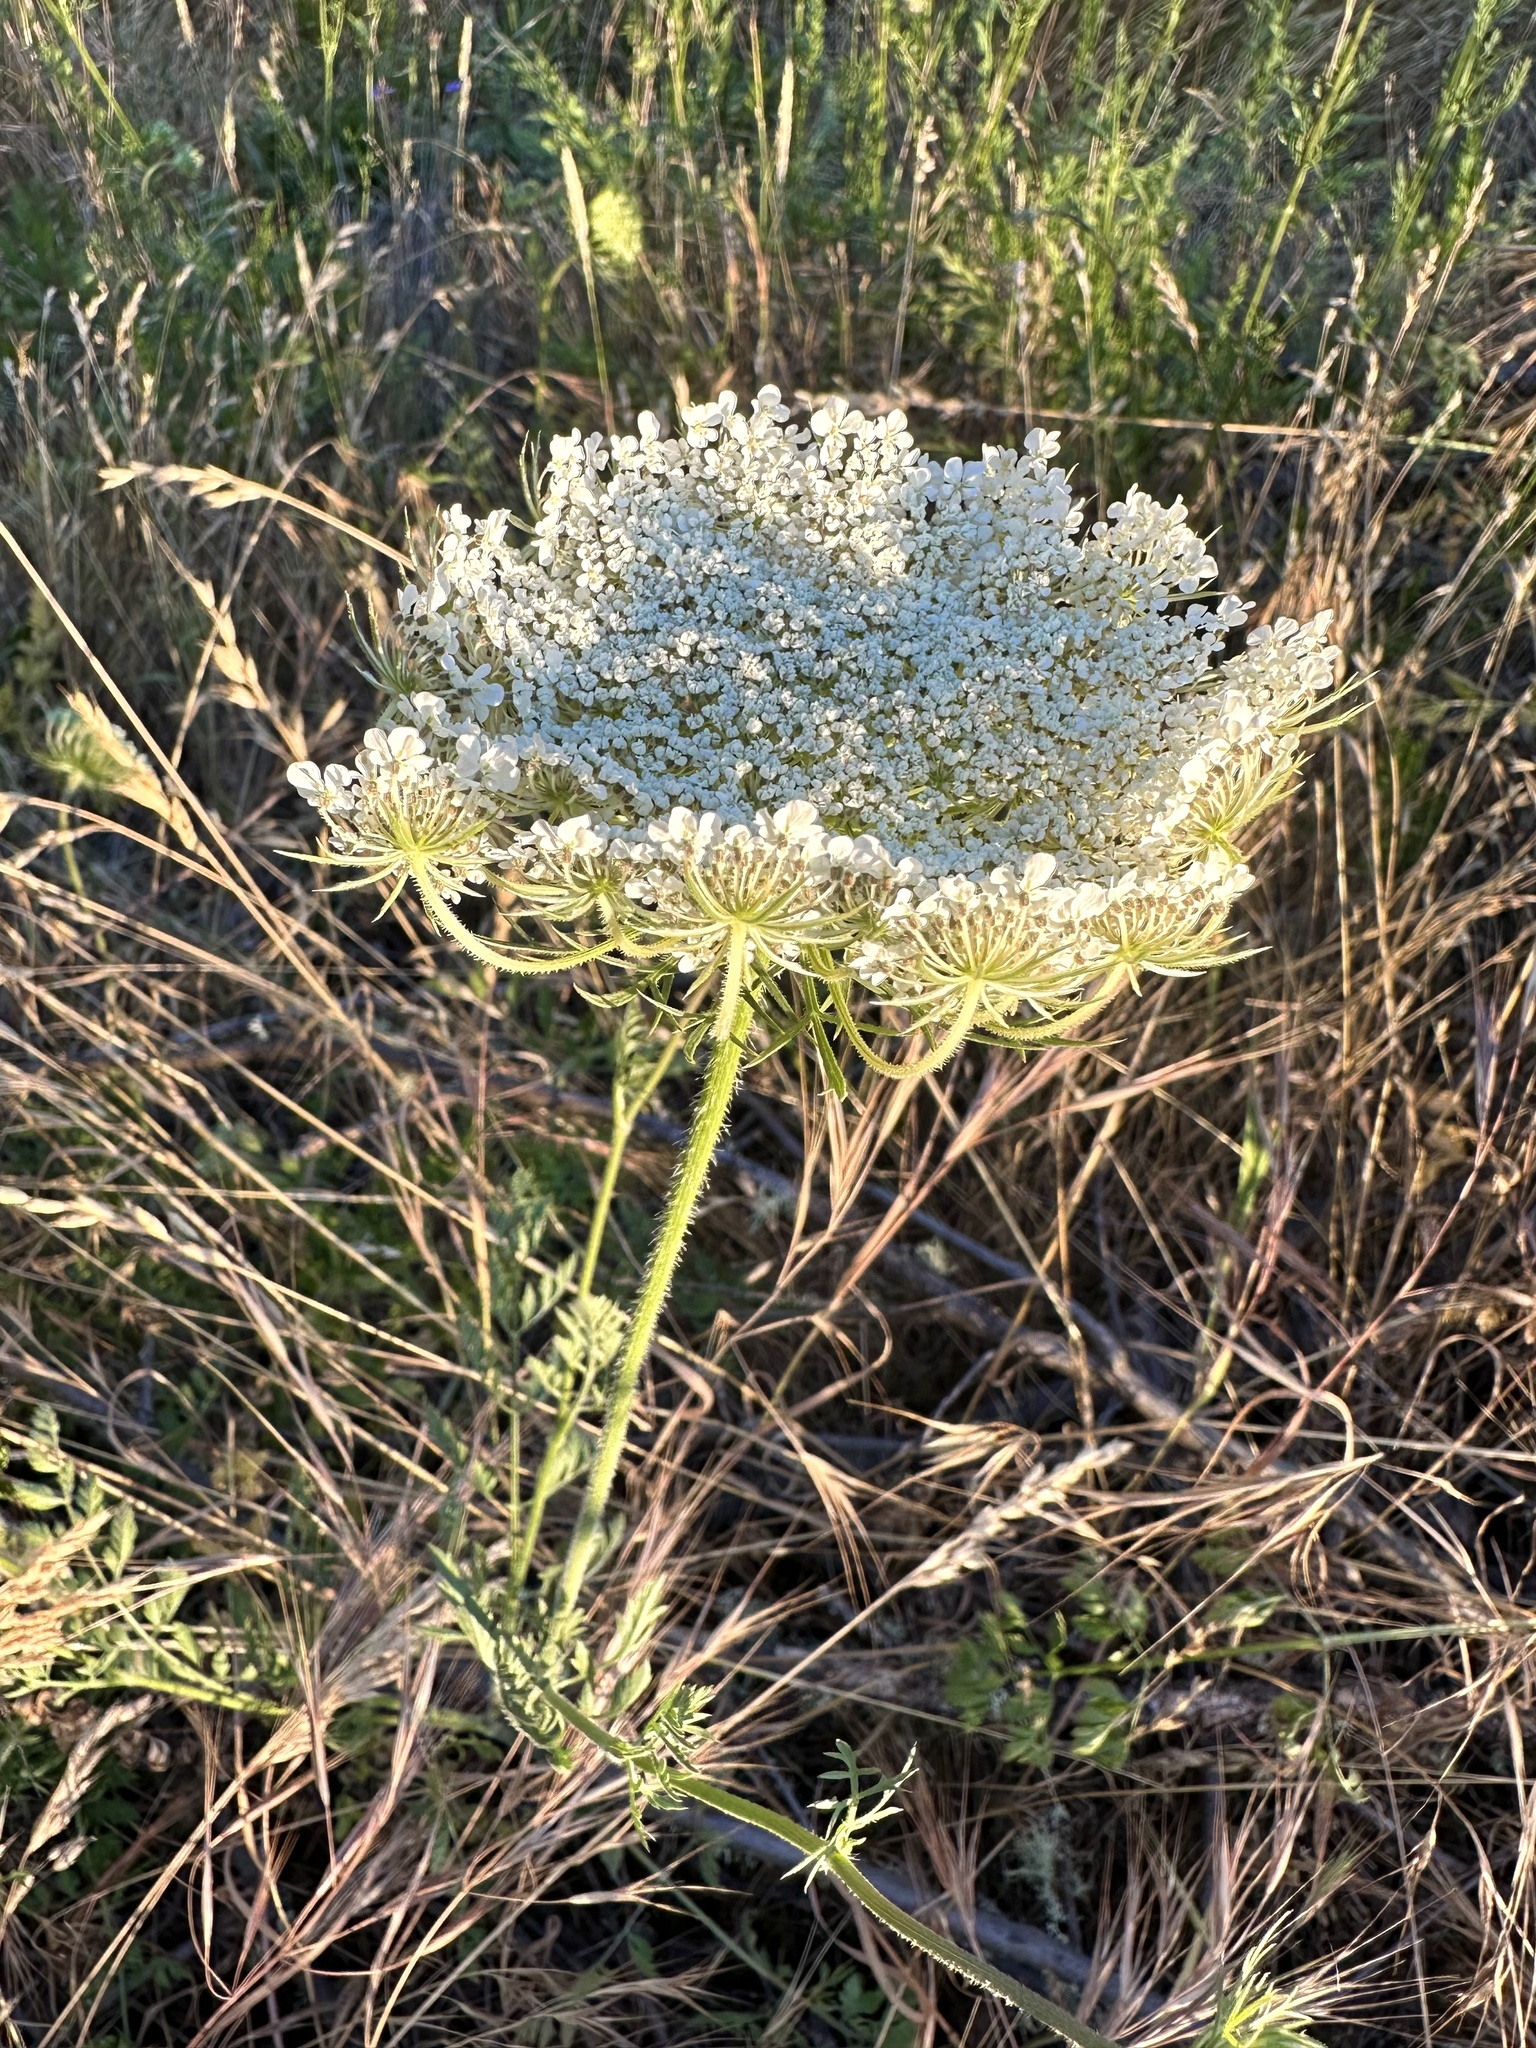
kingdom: Plantae
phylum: Tracheophyta
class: Magnoliopsida
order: Apiales
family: Apiaceae
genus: Daucus
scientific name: Daucus carota
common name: Wild carrot
